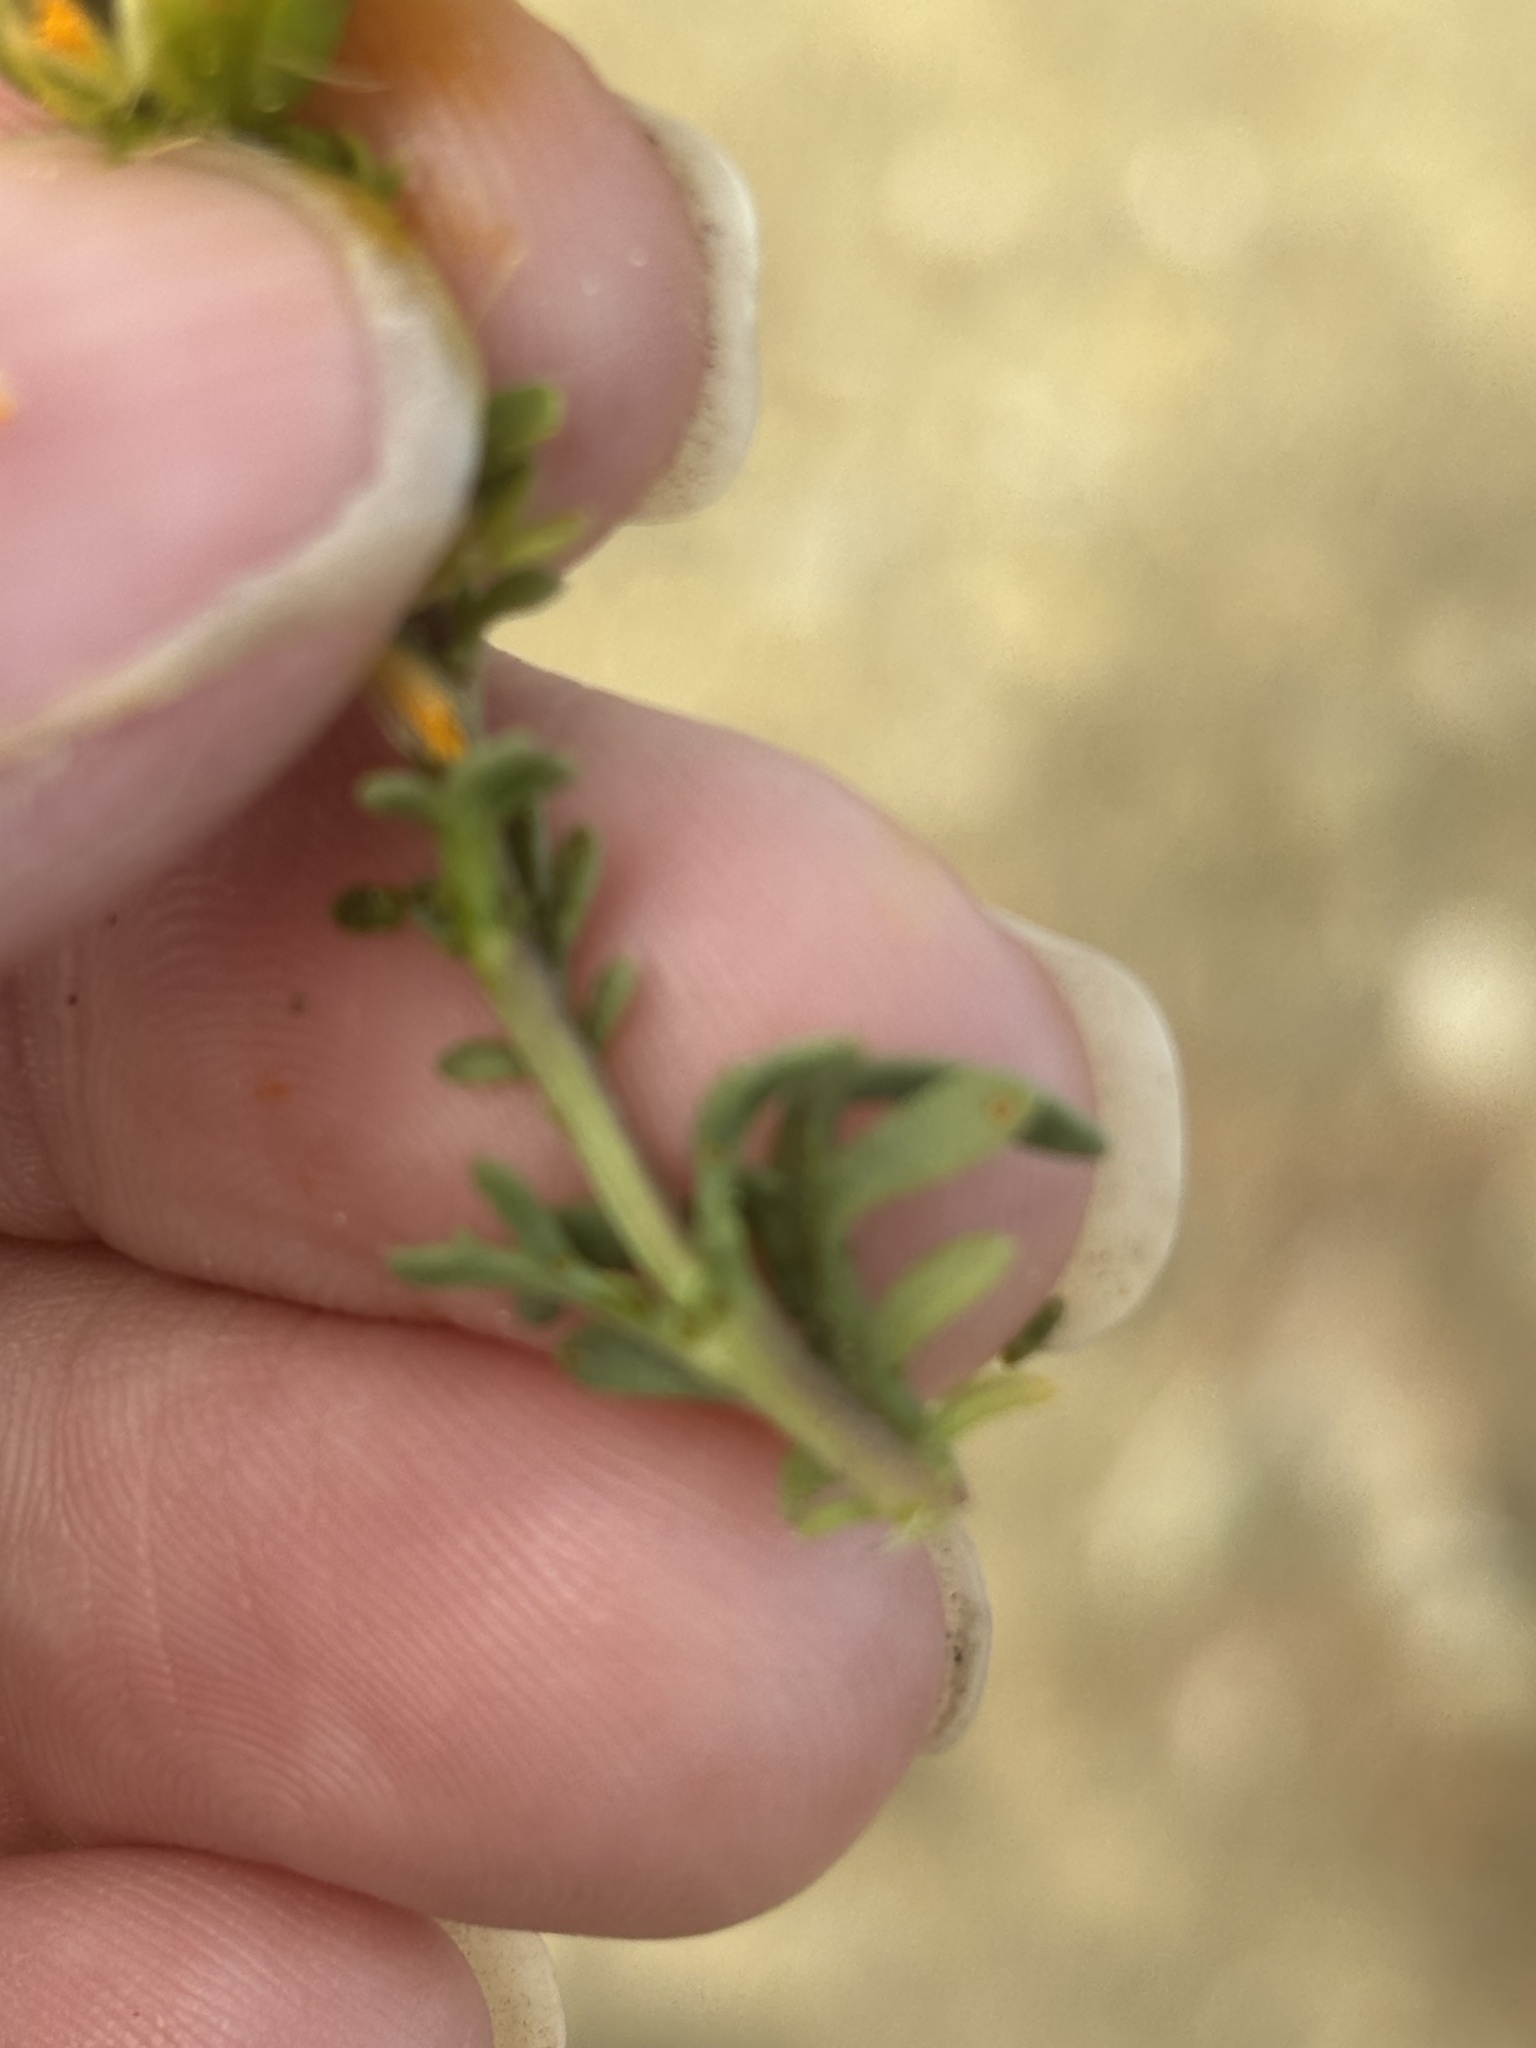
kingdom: Plantae
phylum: Tracheophyta
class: Magnoliopsida
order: Asterales
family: Asteraceae
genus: Boeberastrum
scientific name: Boeberastrum anthemidifolium
